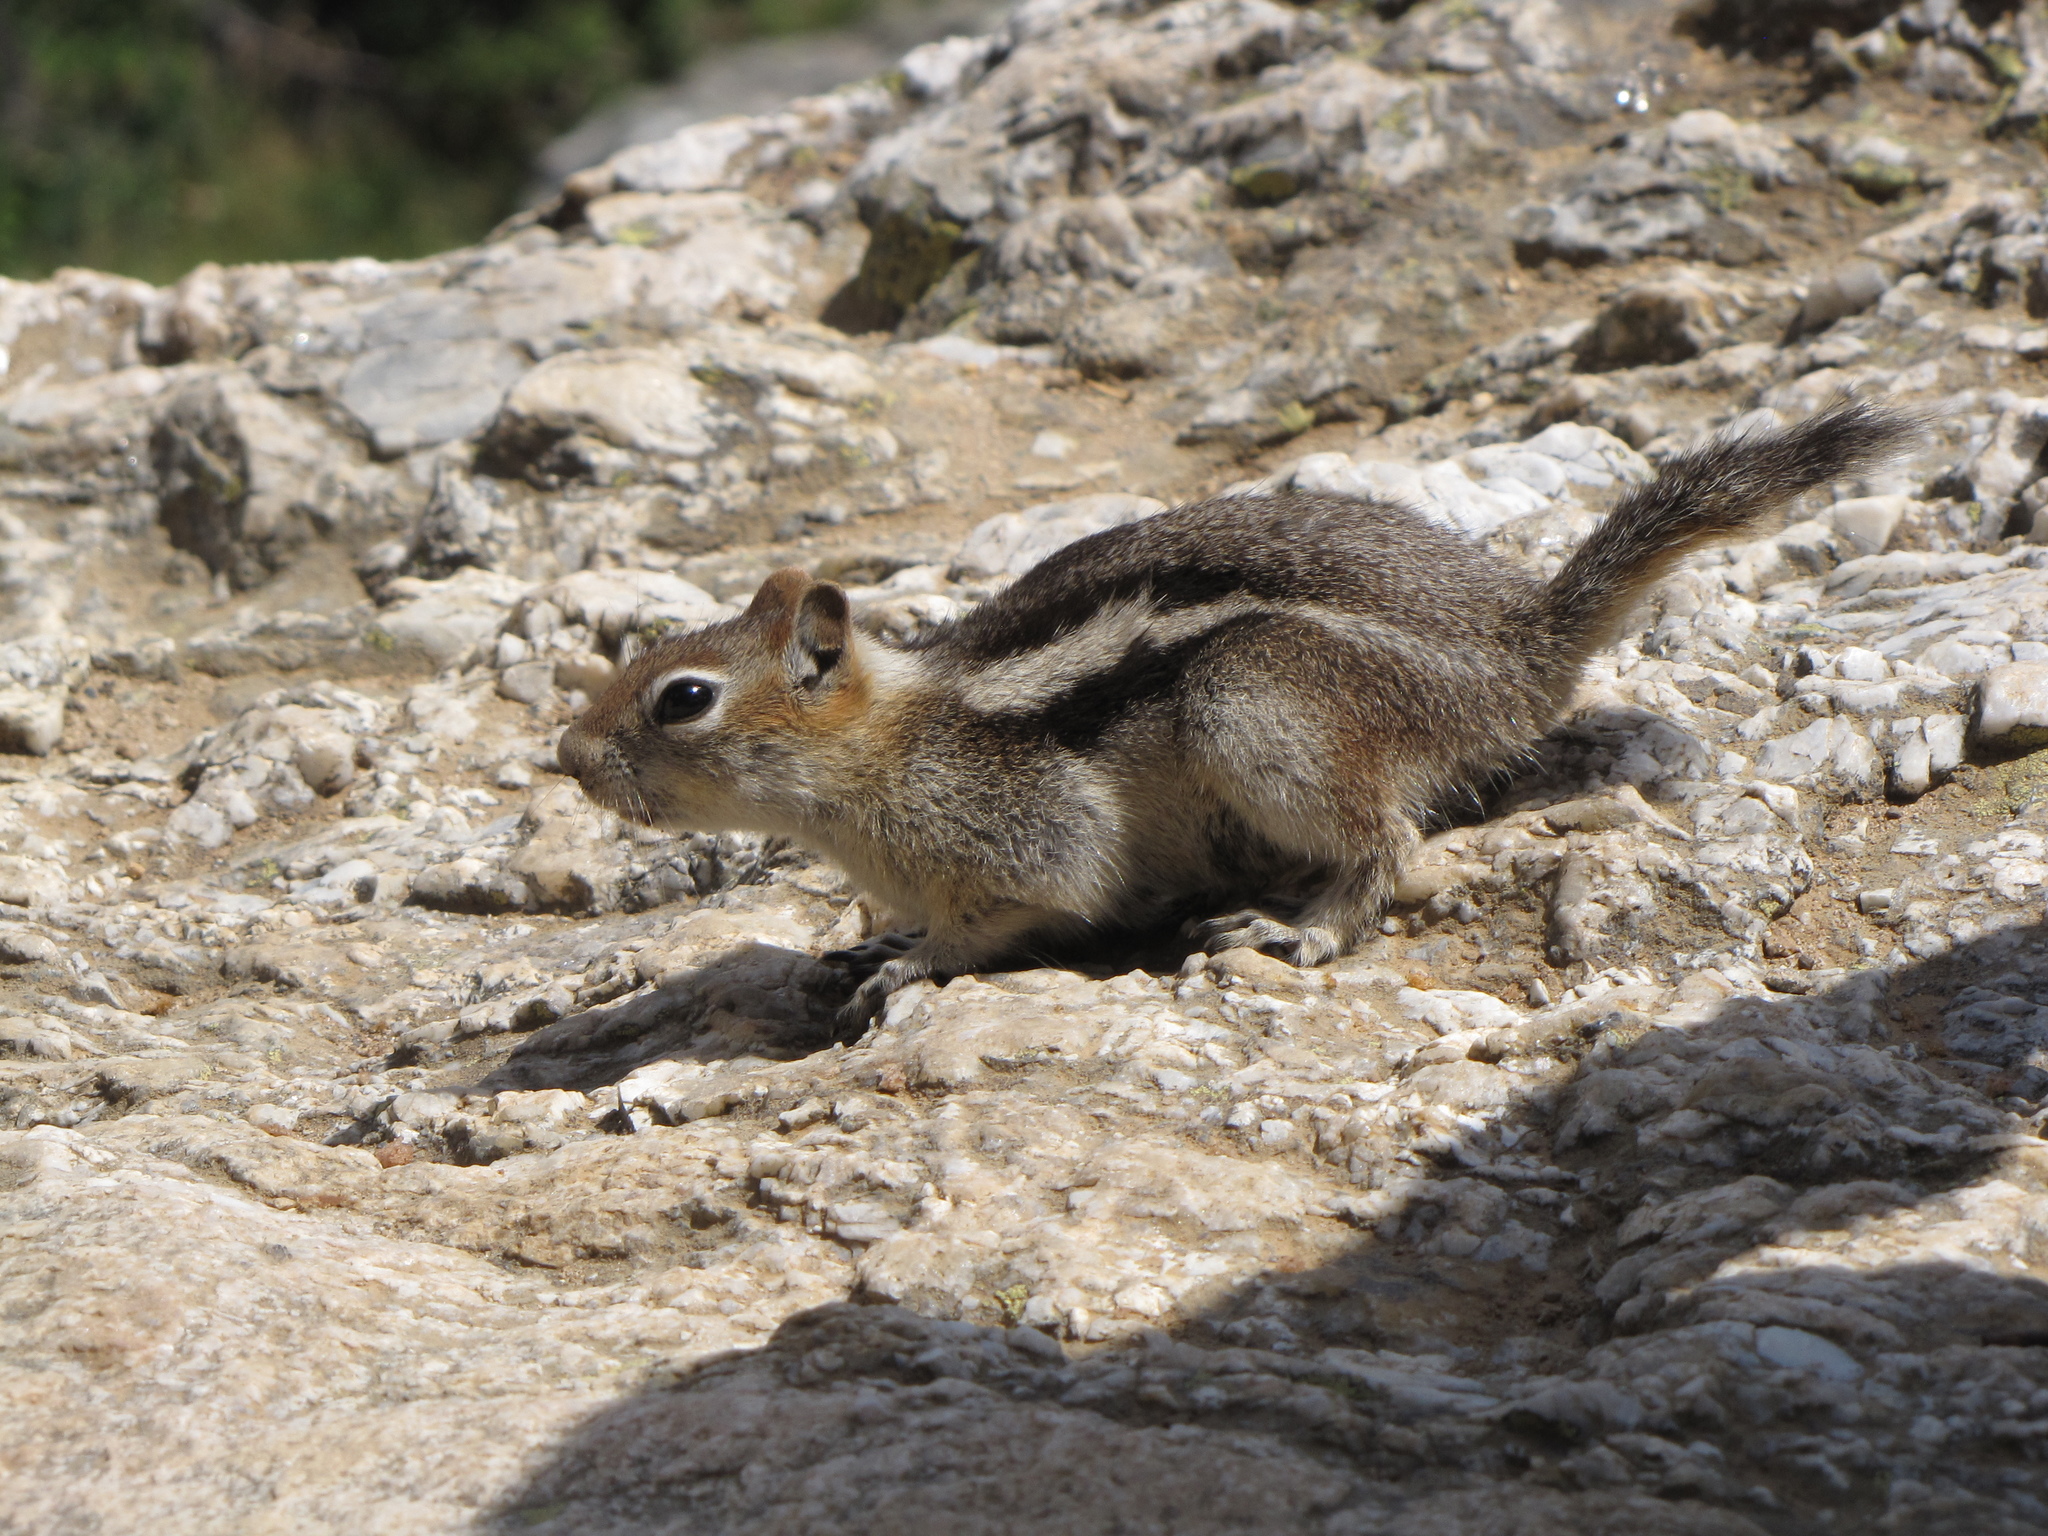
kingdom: Animalia
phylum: Chordata
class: Mammalia
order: Rodentia
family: Sciuridae
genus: Callospermophilus
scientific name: Callospermophilus lateralis
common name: Golden-mantled ground squirrel
